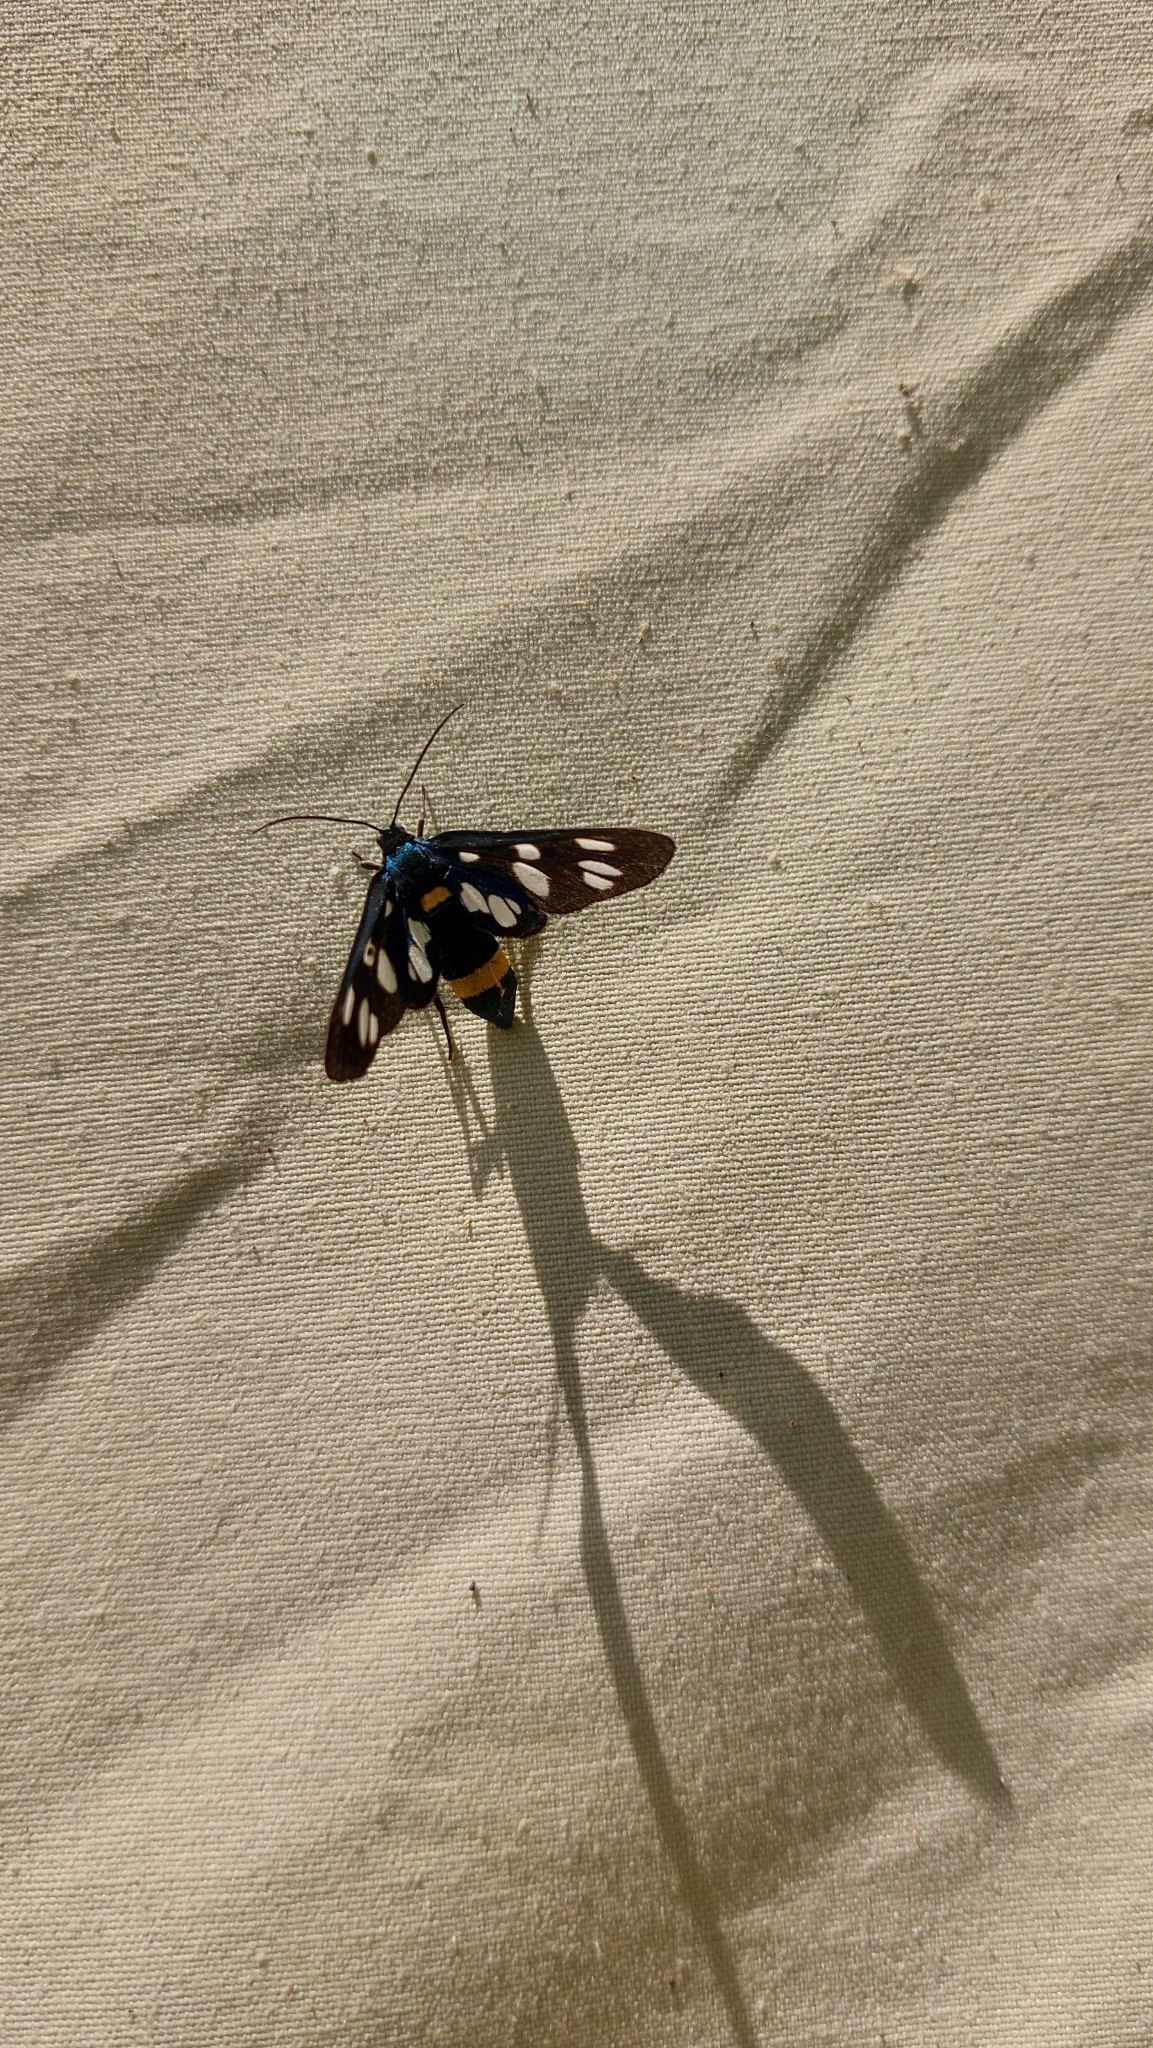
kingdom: Animalia
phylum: Arthropoda
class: Insecta
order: Lepidoptera
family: Erebidae
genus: Amata
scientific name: Amata phegea
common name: Nine-spotted
